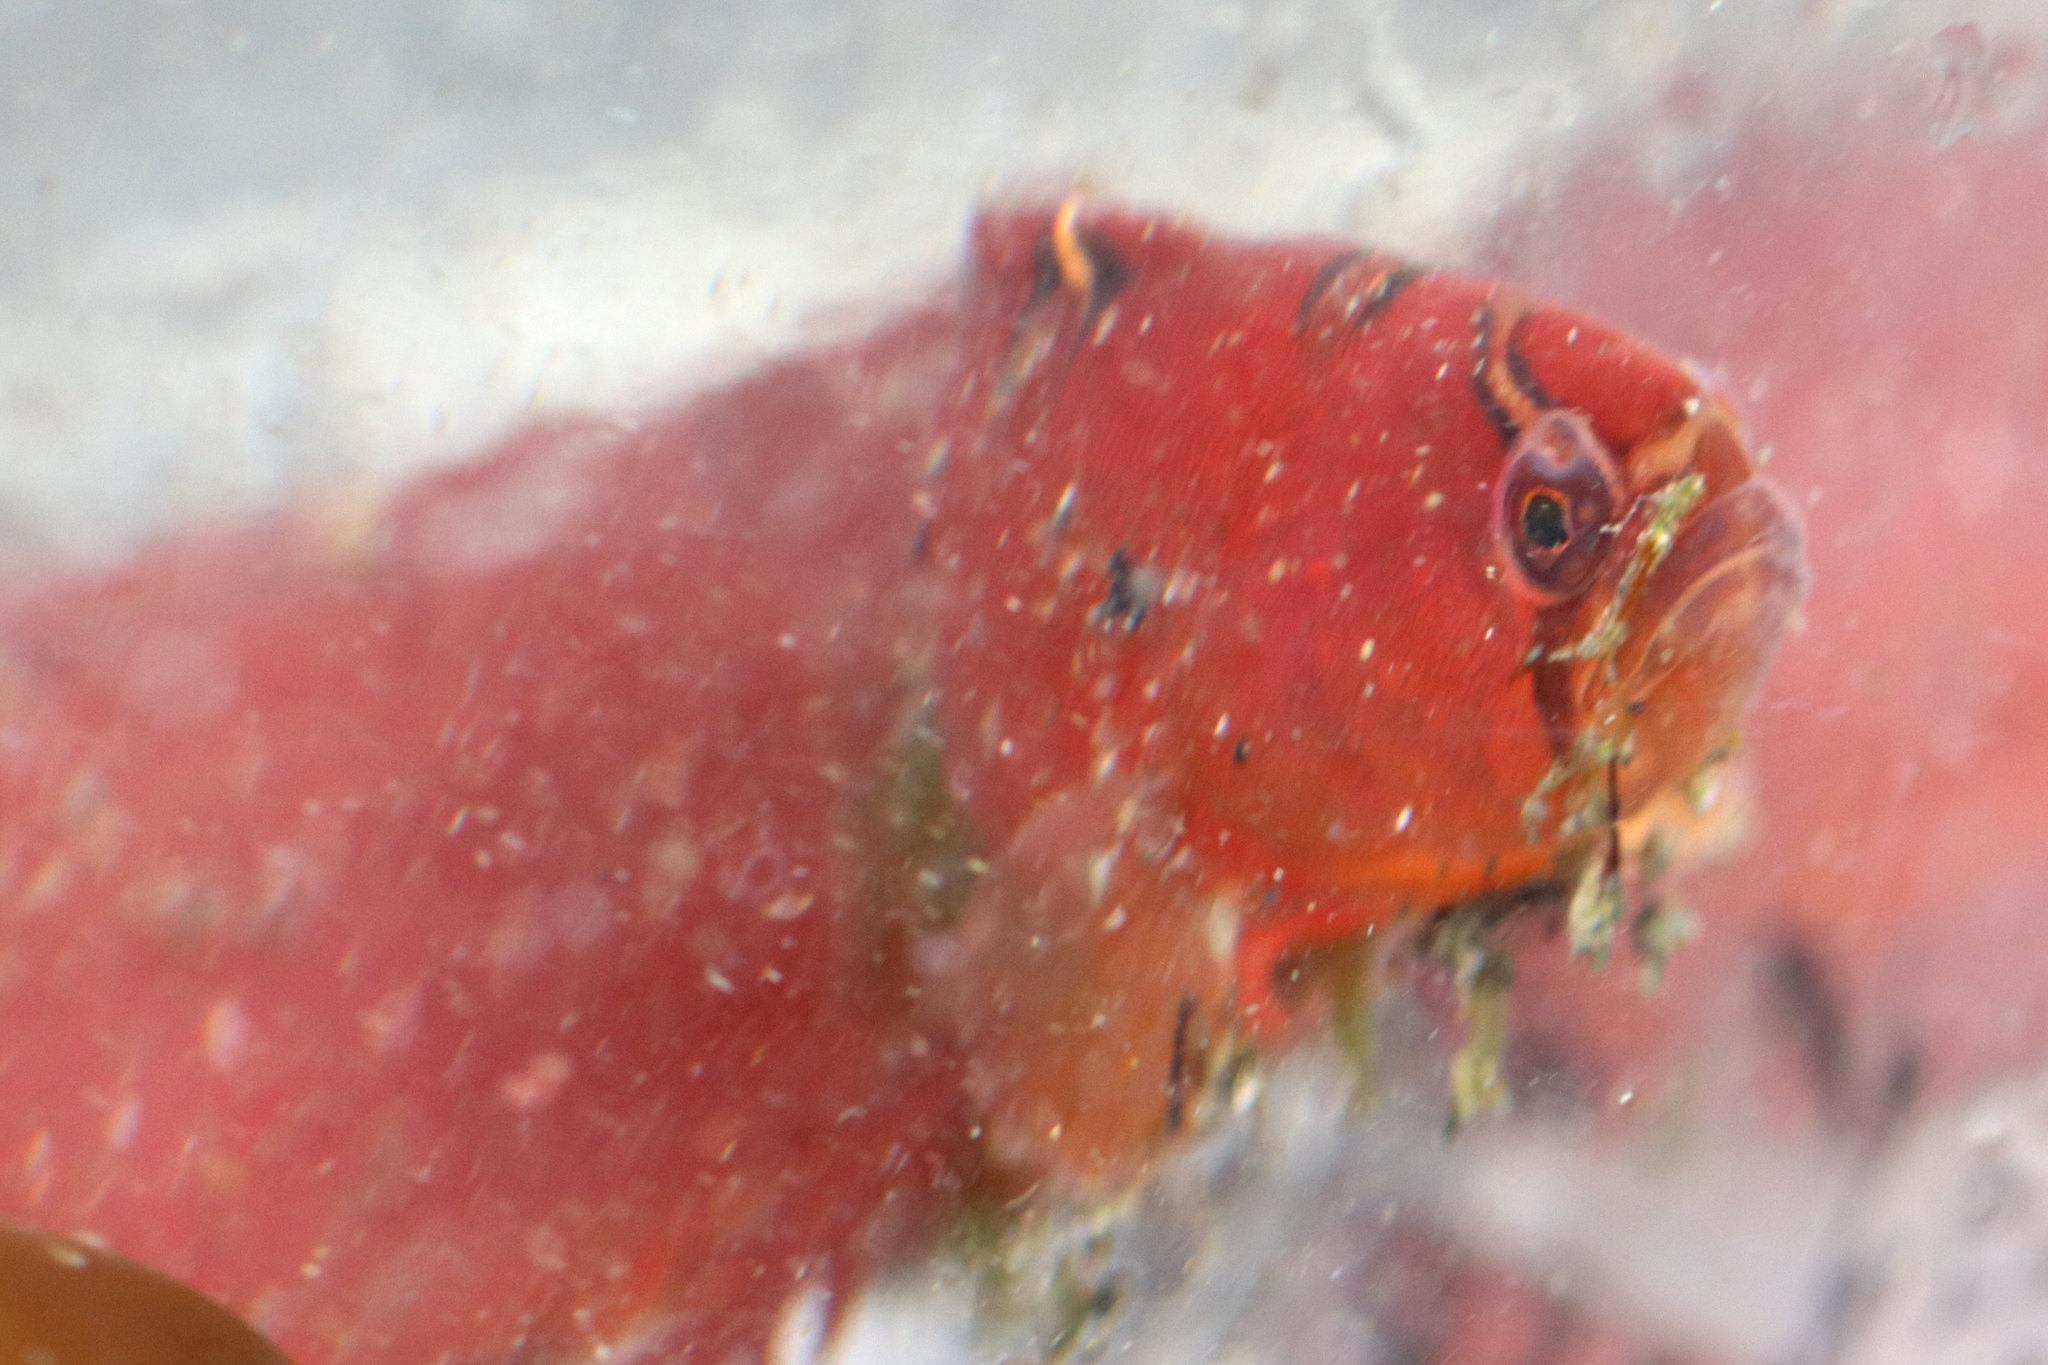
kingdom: Animalia
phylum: Chordata
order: Perciformes
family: Pholidae
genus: Pholis
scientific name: Pholis laeta
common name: Crescent gunnel
